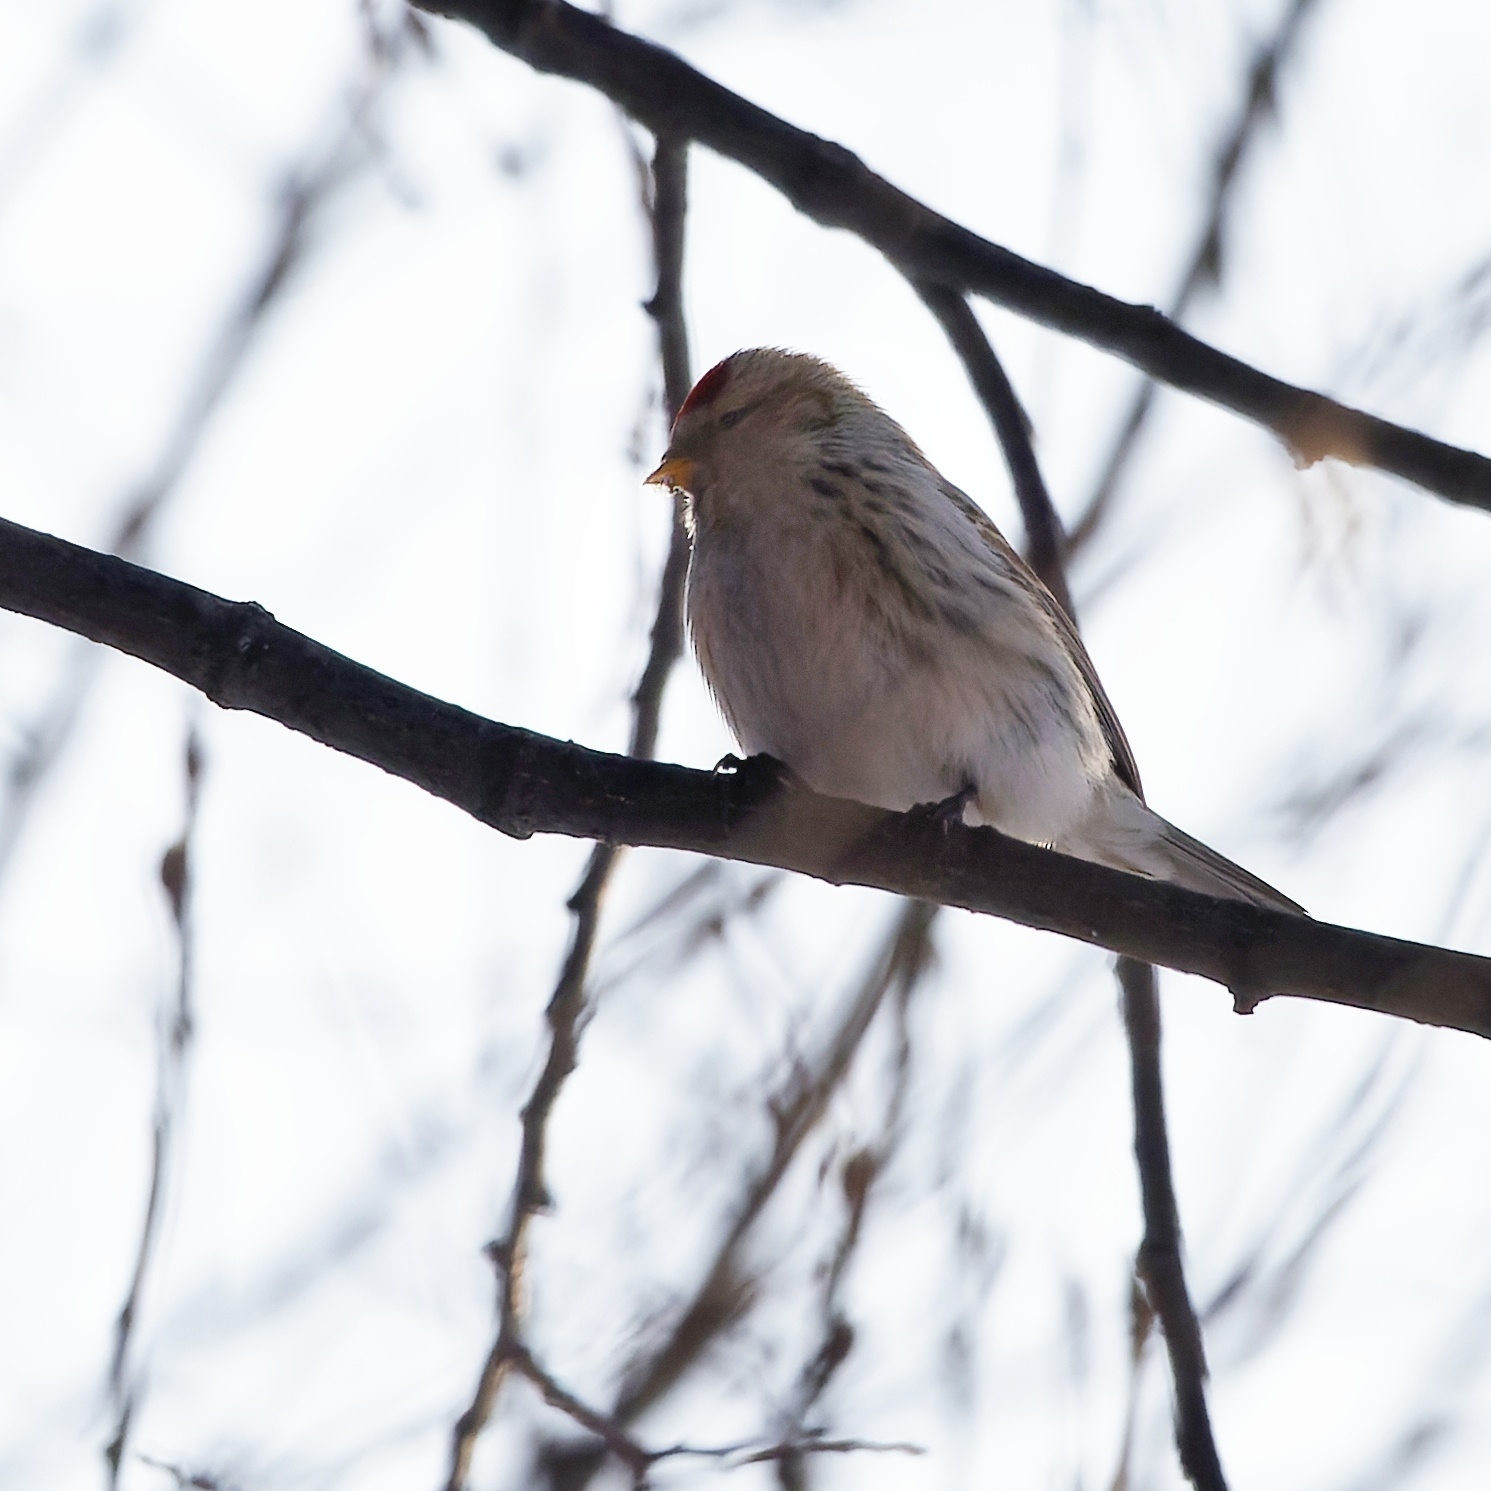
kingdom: Animalia
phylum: Chordata
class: Aves
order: Passeriformes
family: Fringillidae
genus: Acanthis
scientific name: Acanthis hornemanni
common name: Arctic redpoll
